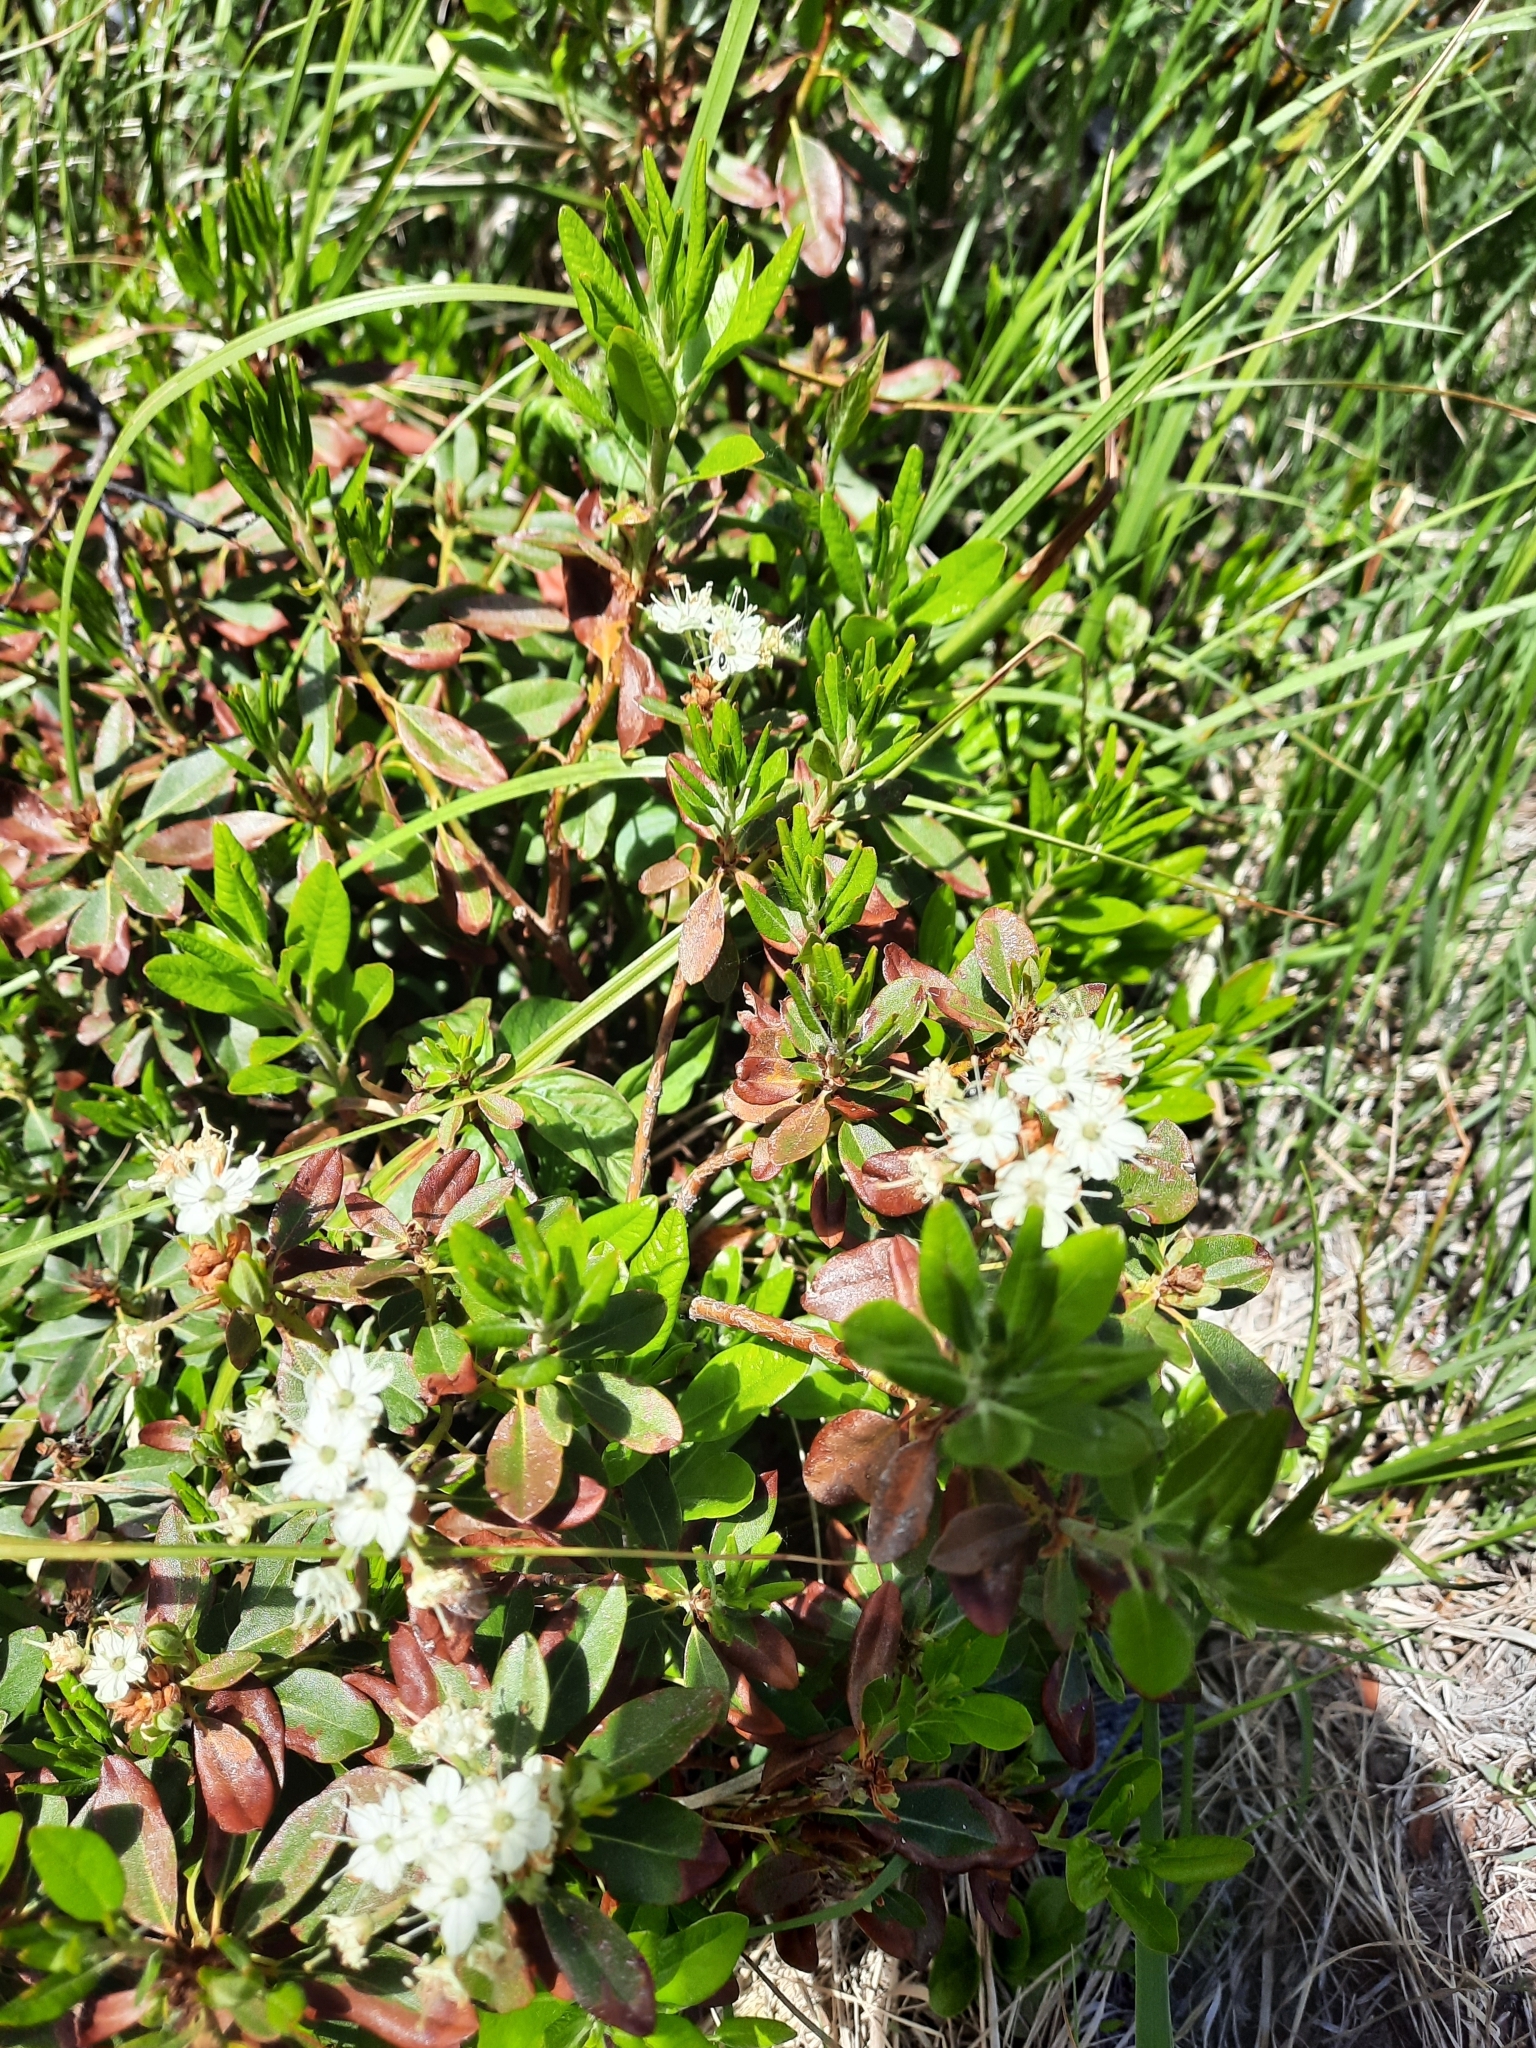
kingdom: Plantae
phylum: Tracheophyta
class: Magnoliopsida
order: Ericales
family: Ericaceae
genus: Rhododendron
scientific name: Rhododendron columbianum
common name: Western labrador tea
